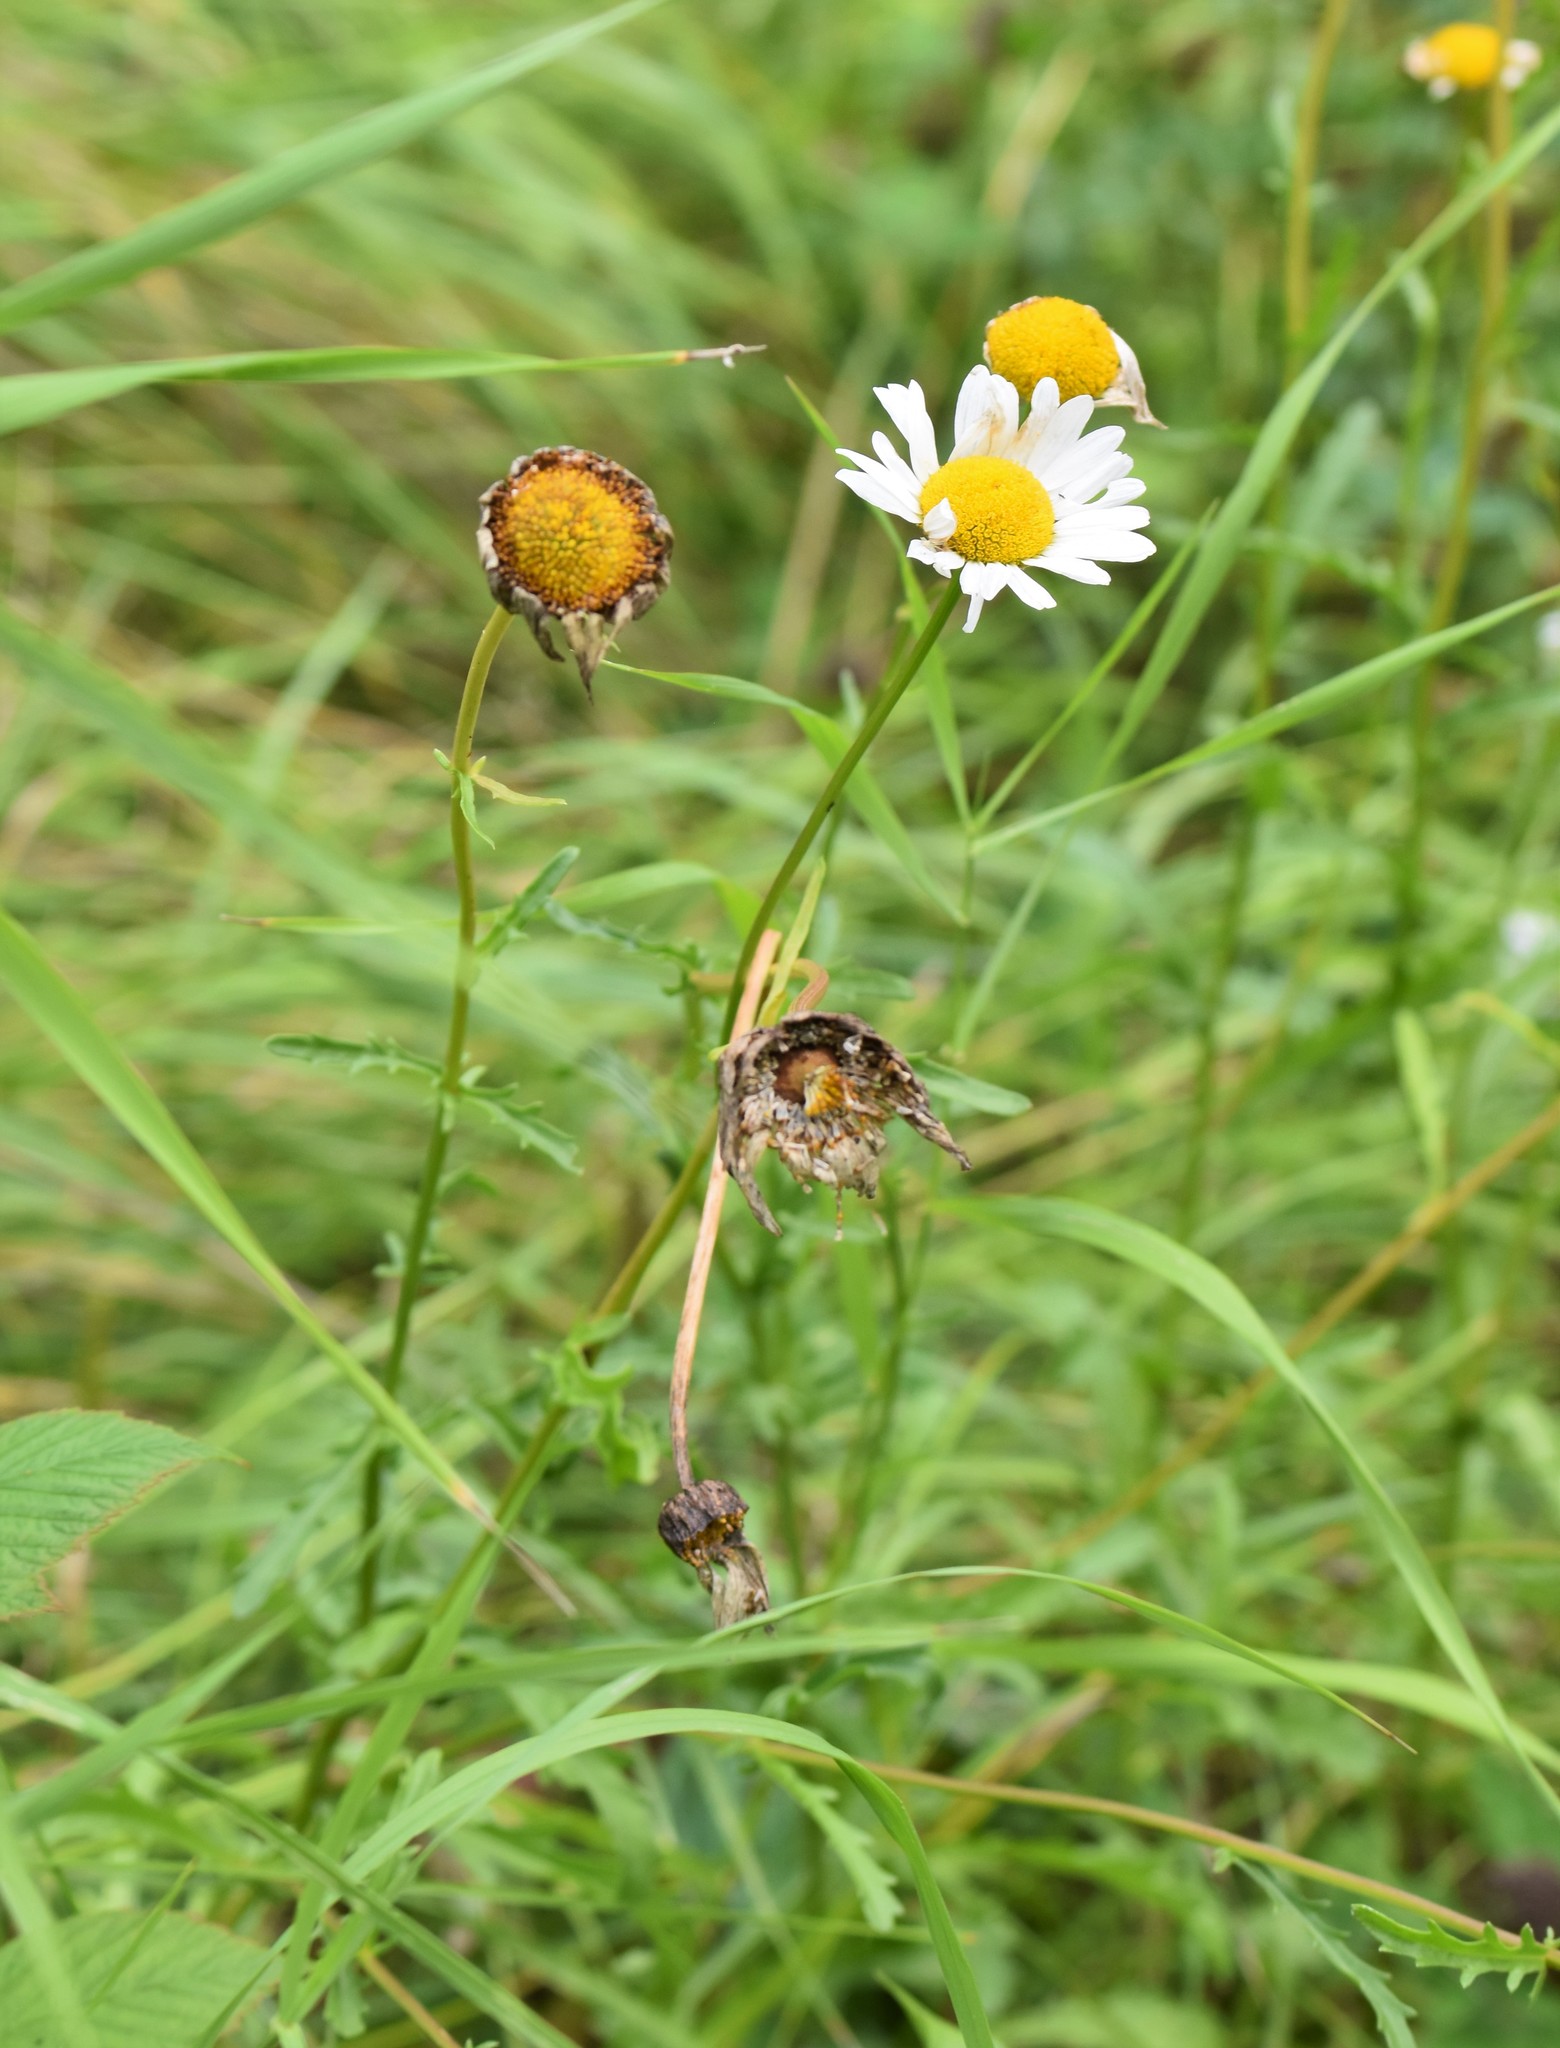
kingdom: Plantae
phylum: Tracheophyta
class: Magnoliopsida
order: Asterales
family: Asteraceae
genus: Leucanthemum
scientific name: Leucanthemum vulgare
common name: Oxeye daisy
